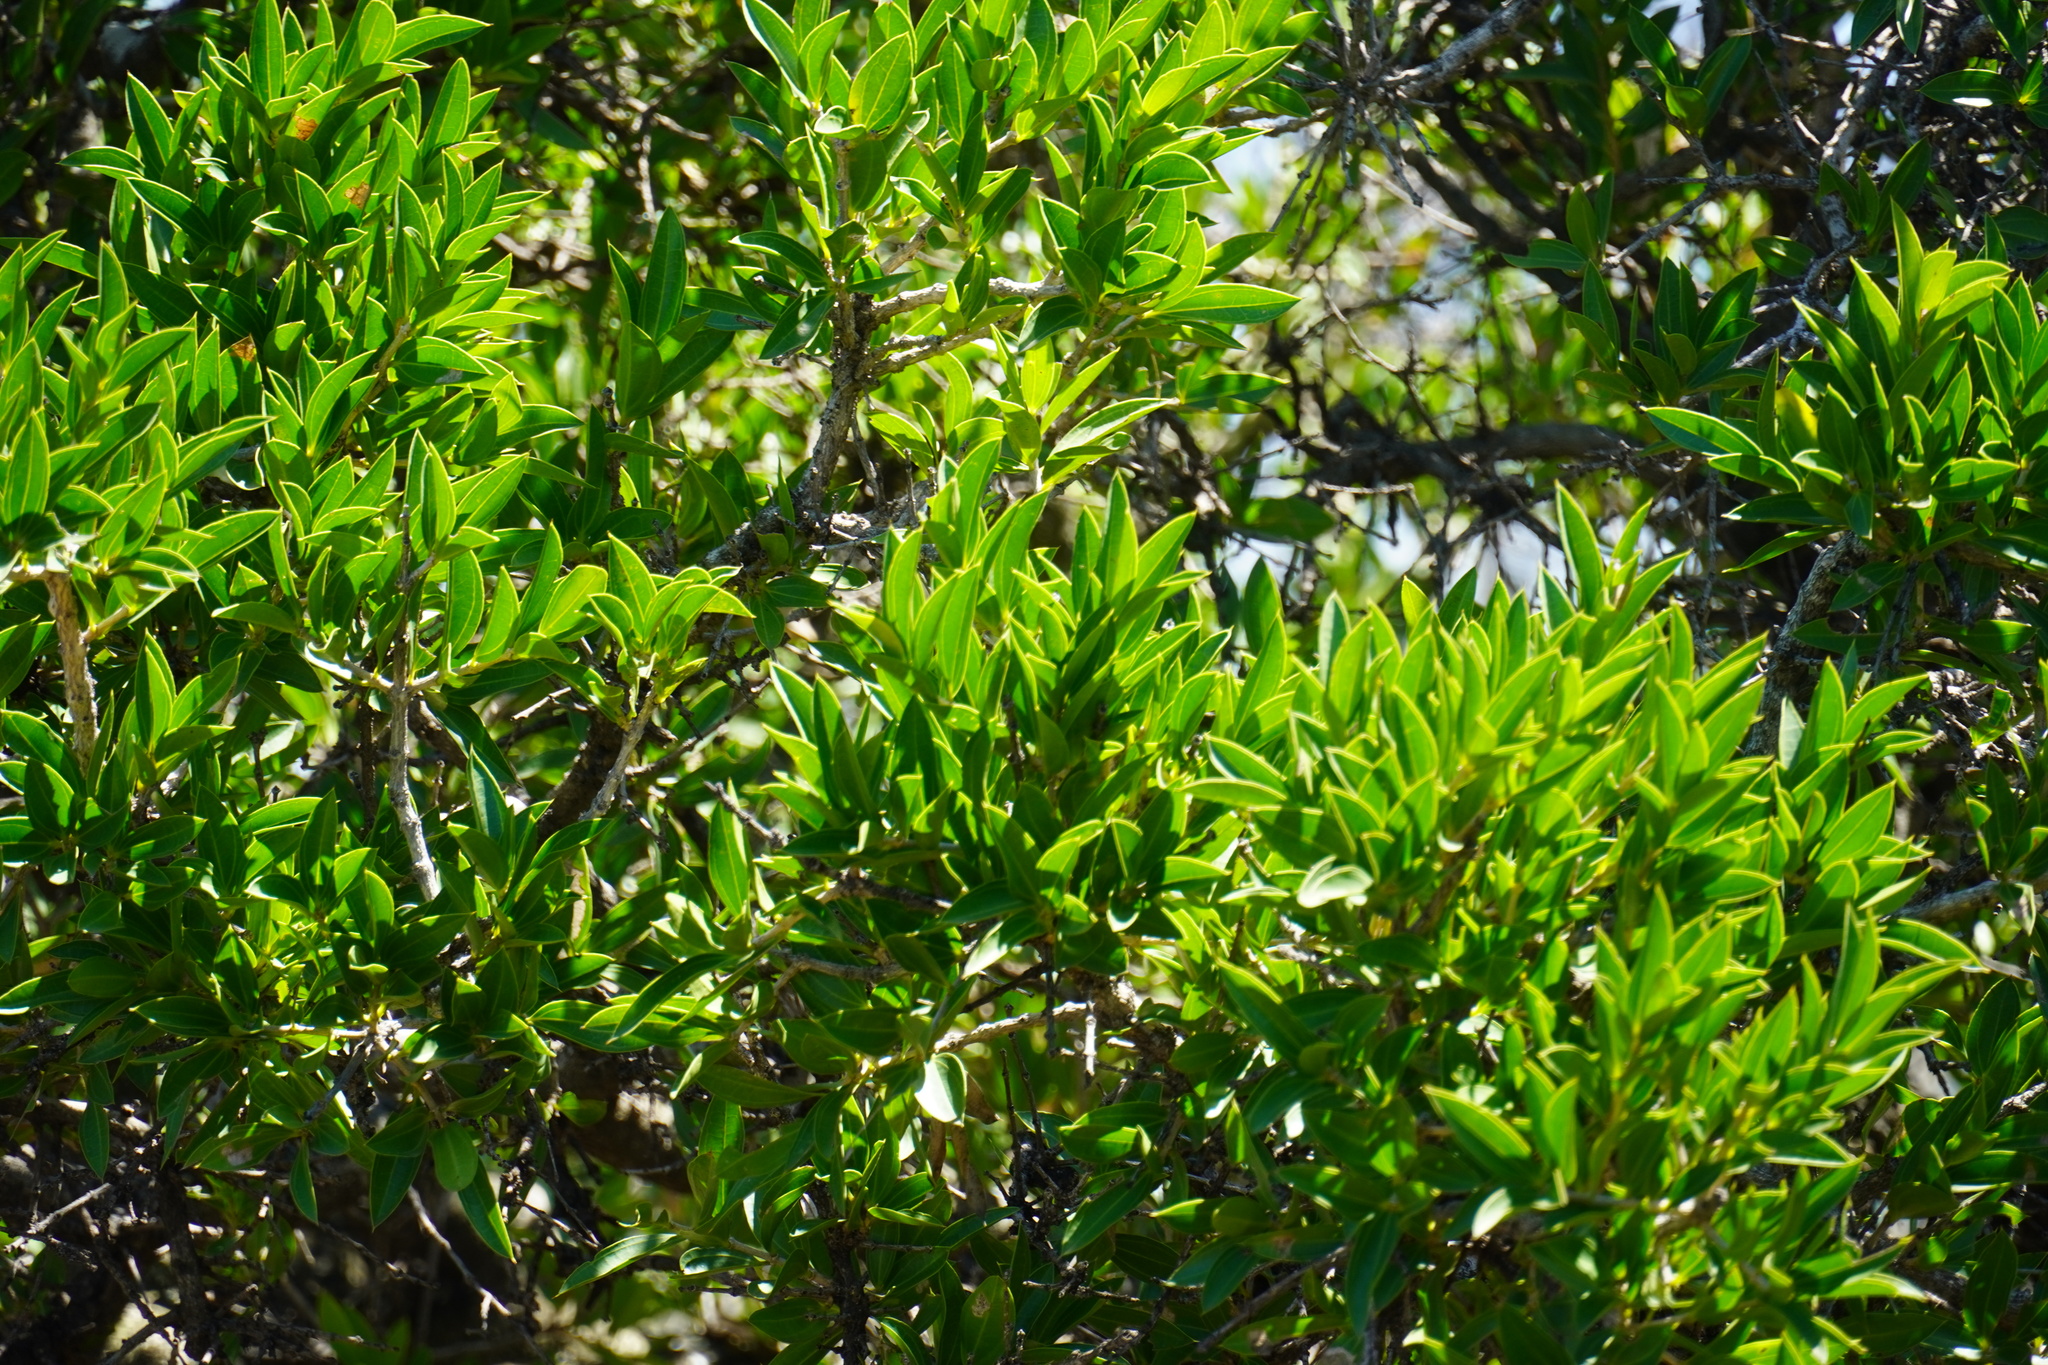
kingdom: Plantae
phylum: Tracheophyta
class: Magnoliopsida
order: Gentianales
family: Loganiaceae
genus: Strychnos
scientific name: Strychnos pungens
